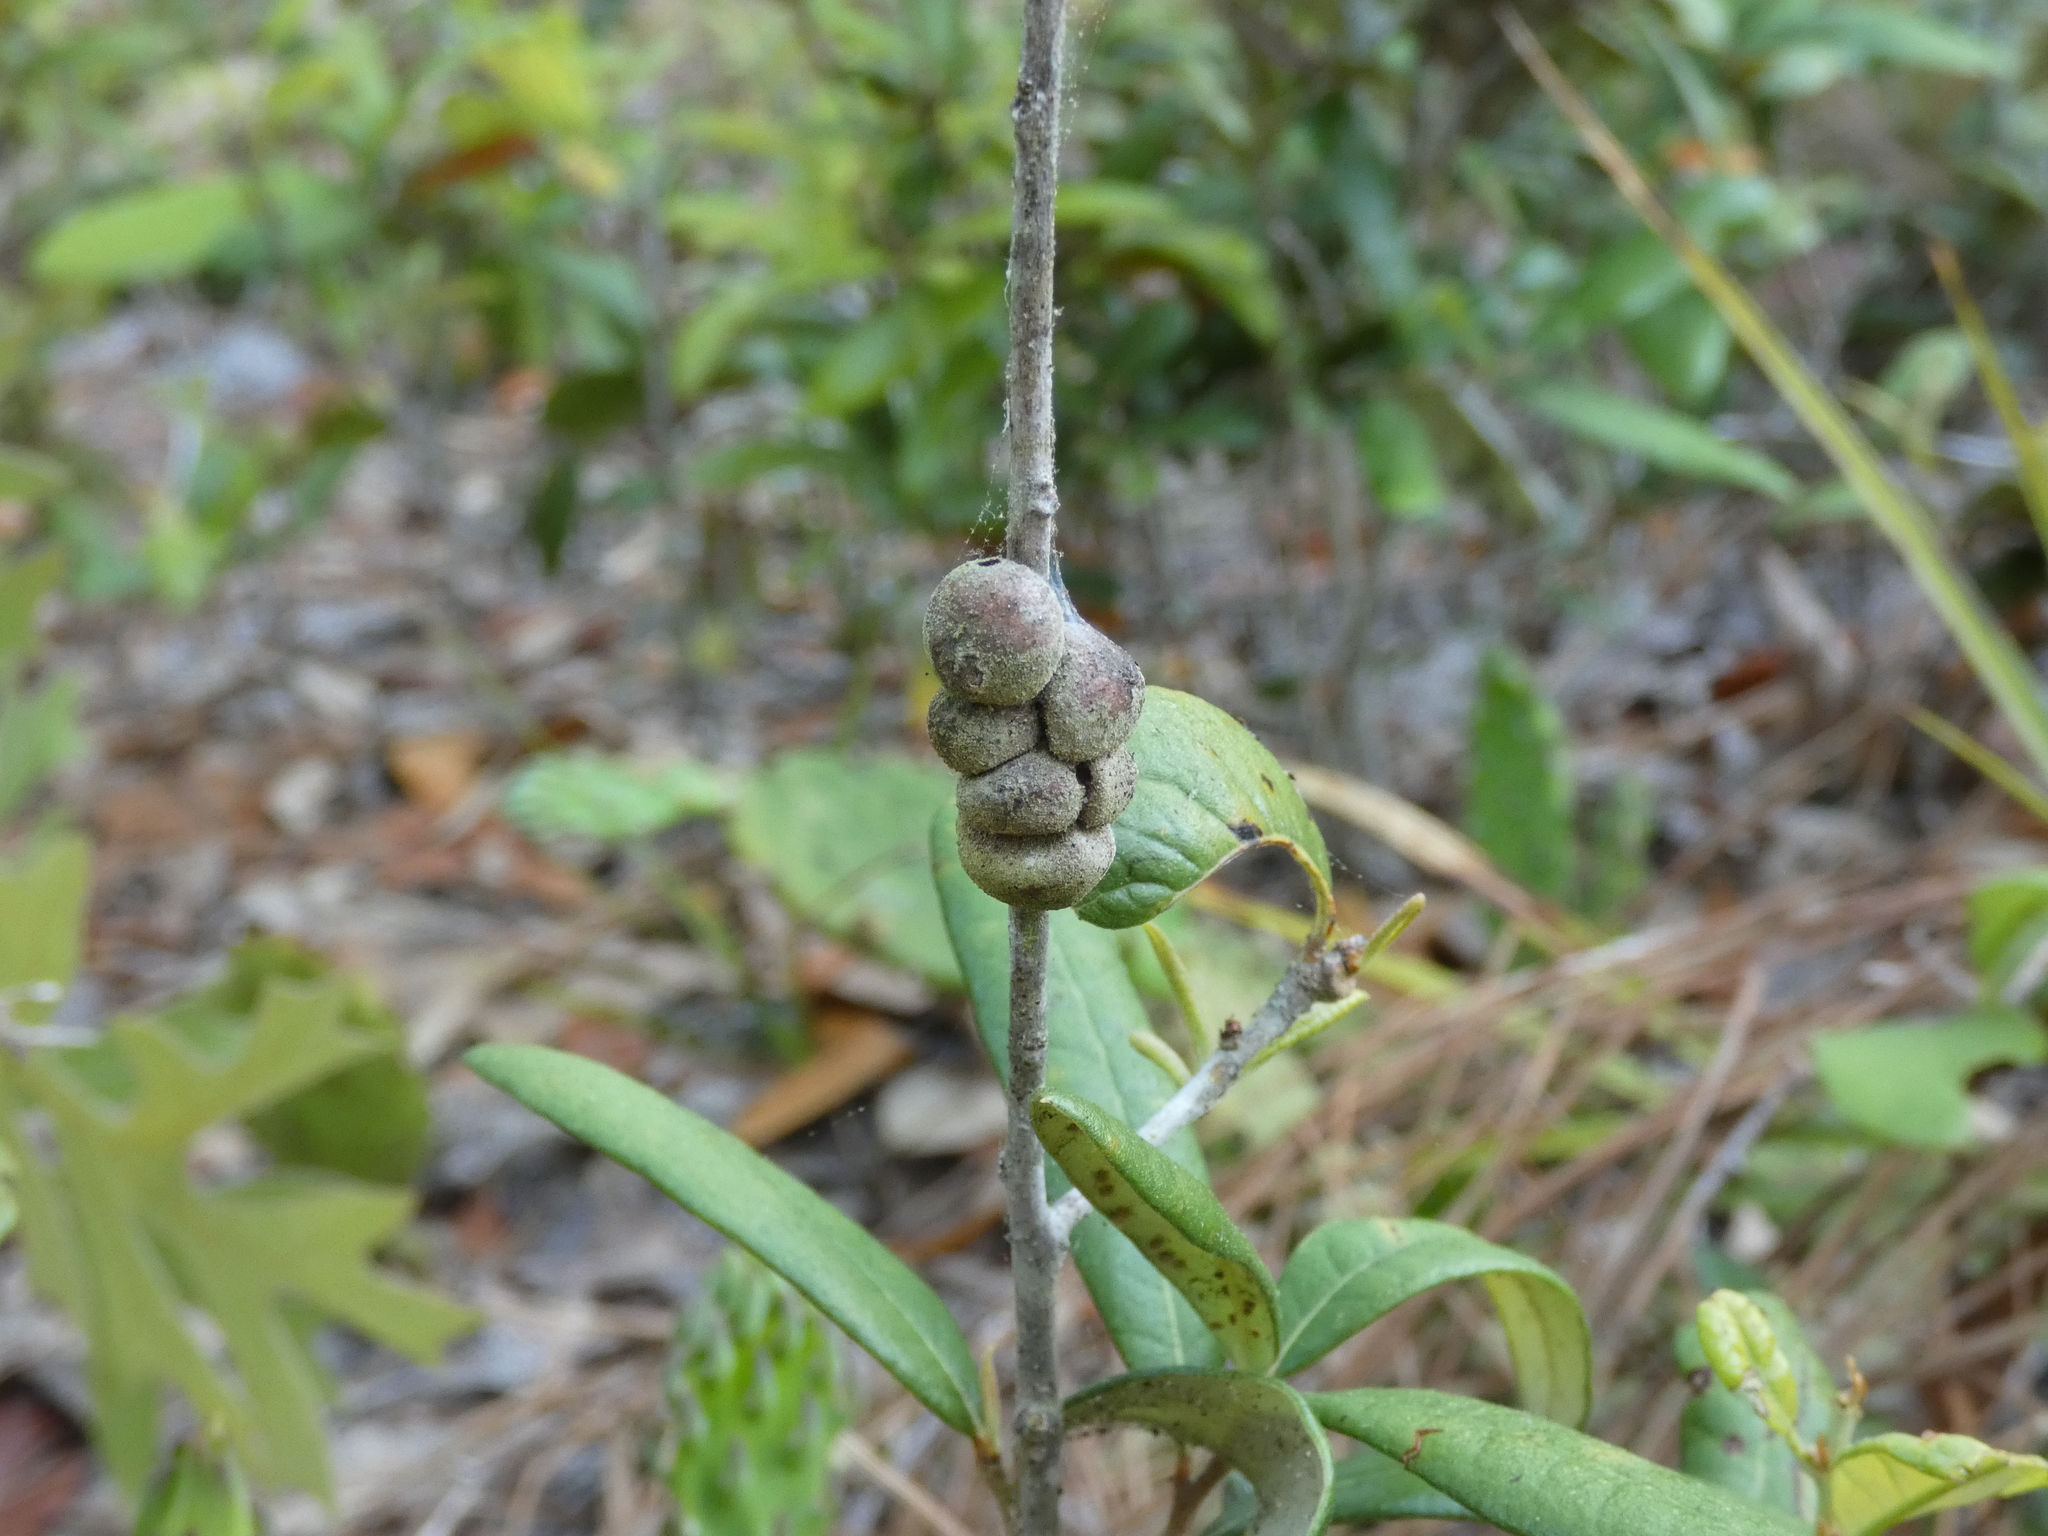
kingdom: Animalia
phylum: Arthropoda
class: Insecta
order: Hymenoptera
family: Cynipidae
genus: Disholcaspis
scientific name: Disholcaspis
